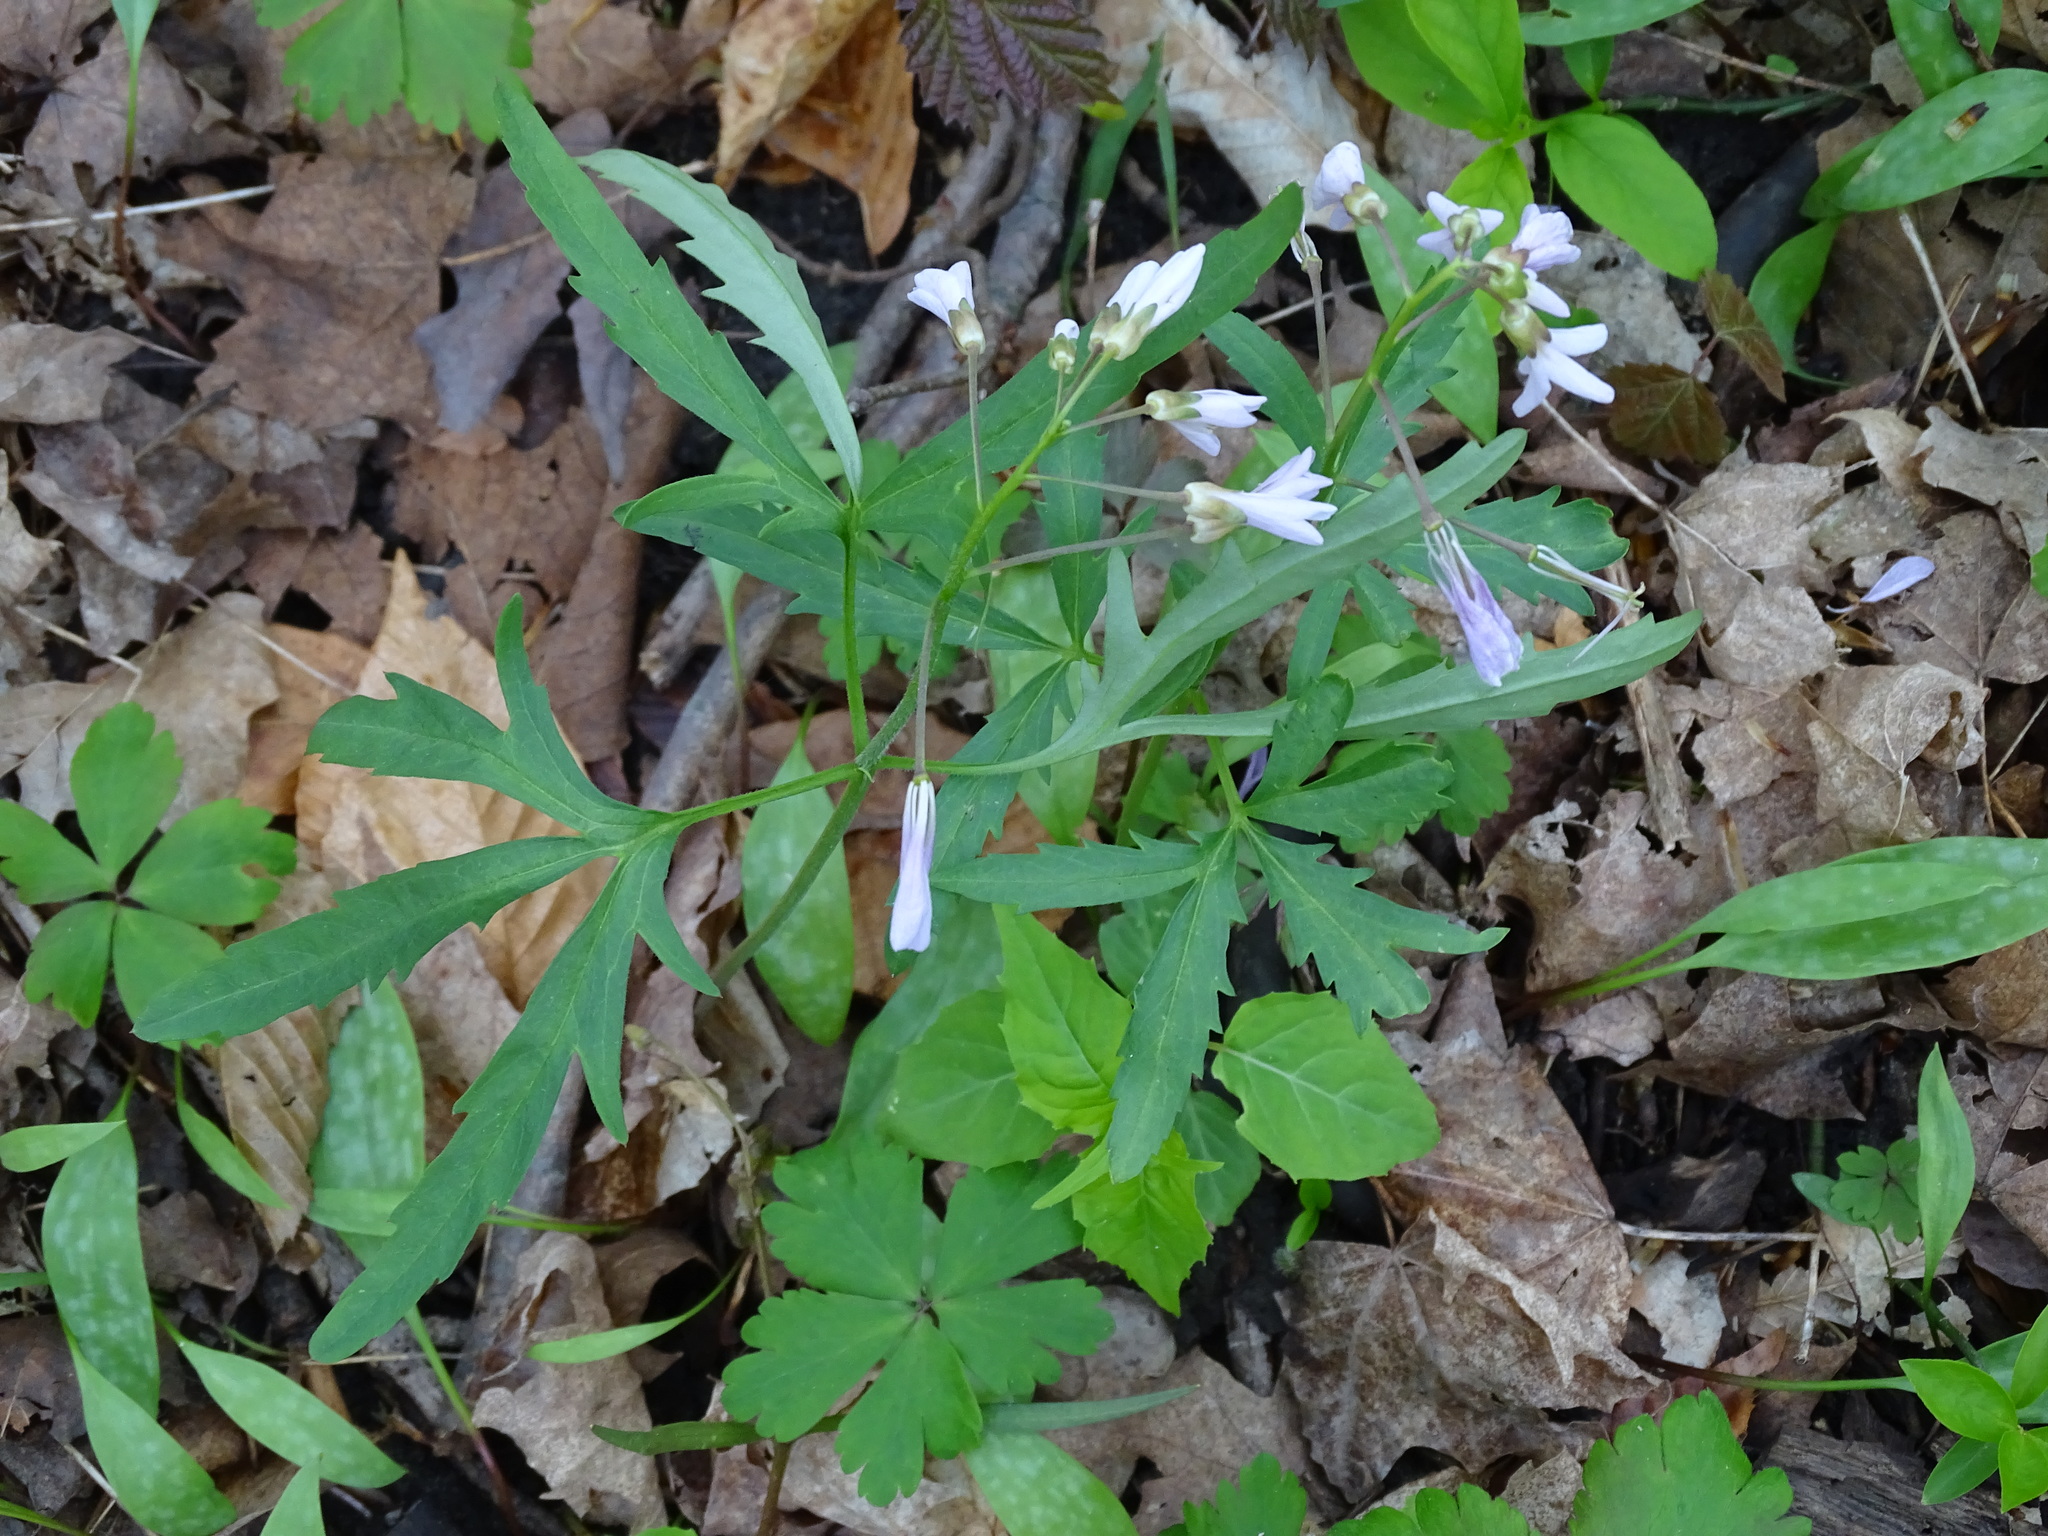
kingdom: Plantae
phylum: Tracheophyta
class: Magnoliopsida
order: Brassicales
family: Brassicaceae
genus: Cardamine
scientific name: Cardamine concatenata
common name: Cut-leaf toothcup
